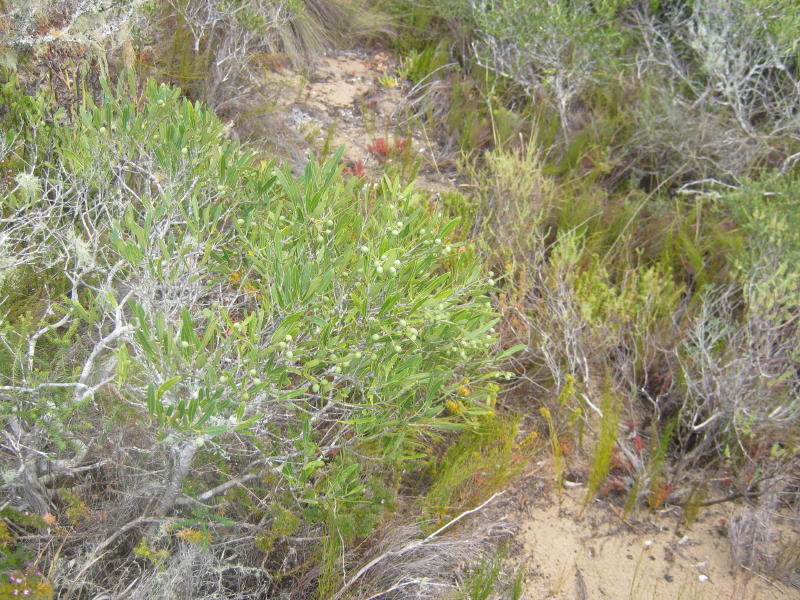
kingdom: Plantae
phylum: Tracheophyta
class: Magnoliopsida
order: Lamiales
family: Oleaceae
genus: Olea
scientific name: Olea exasperata
